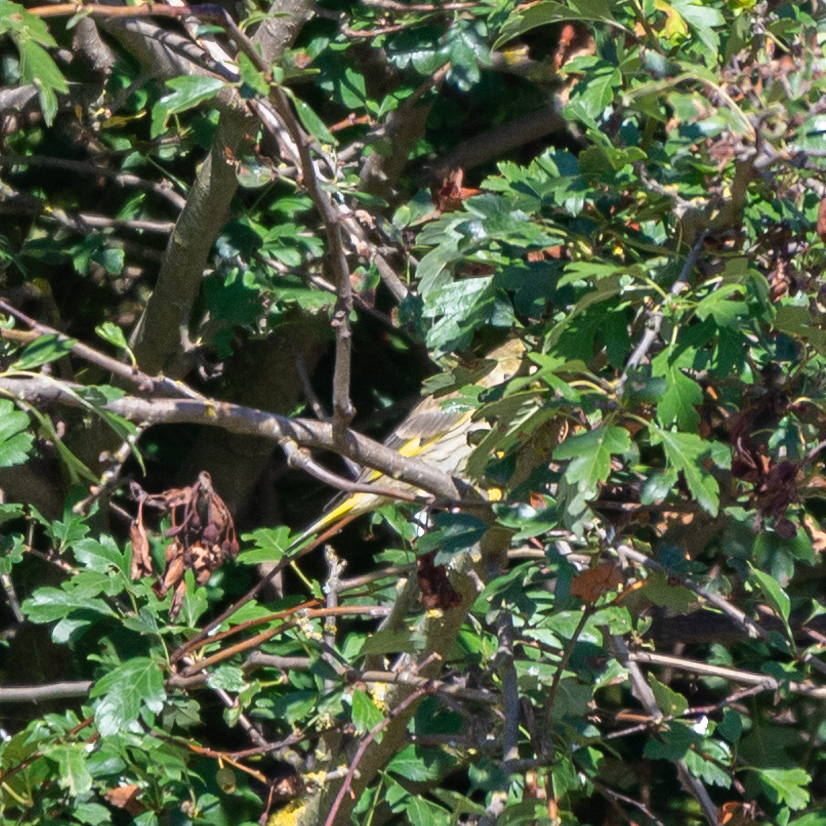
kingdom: Plantae
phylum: Tracheophyta
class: Liliopsida
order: Poales
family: Poaceae
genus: Chloris
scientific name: Chloris chloris
